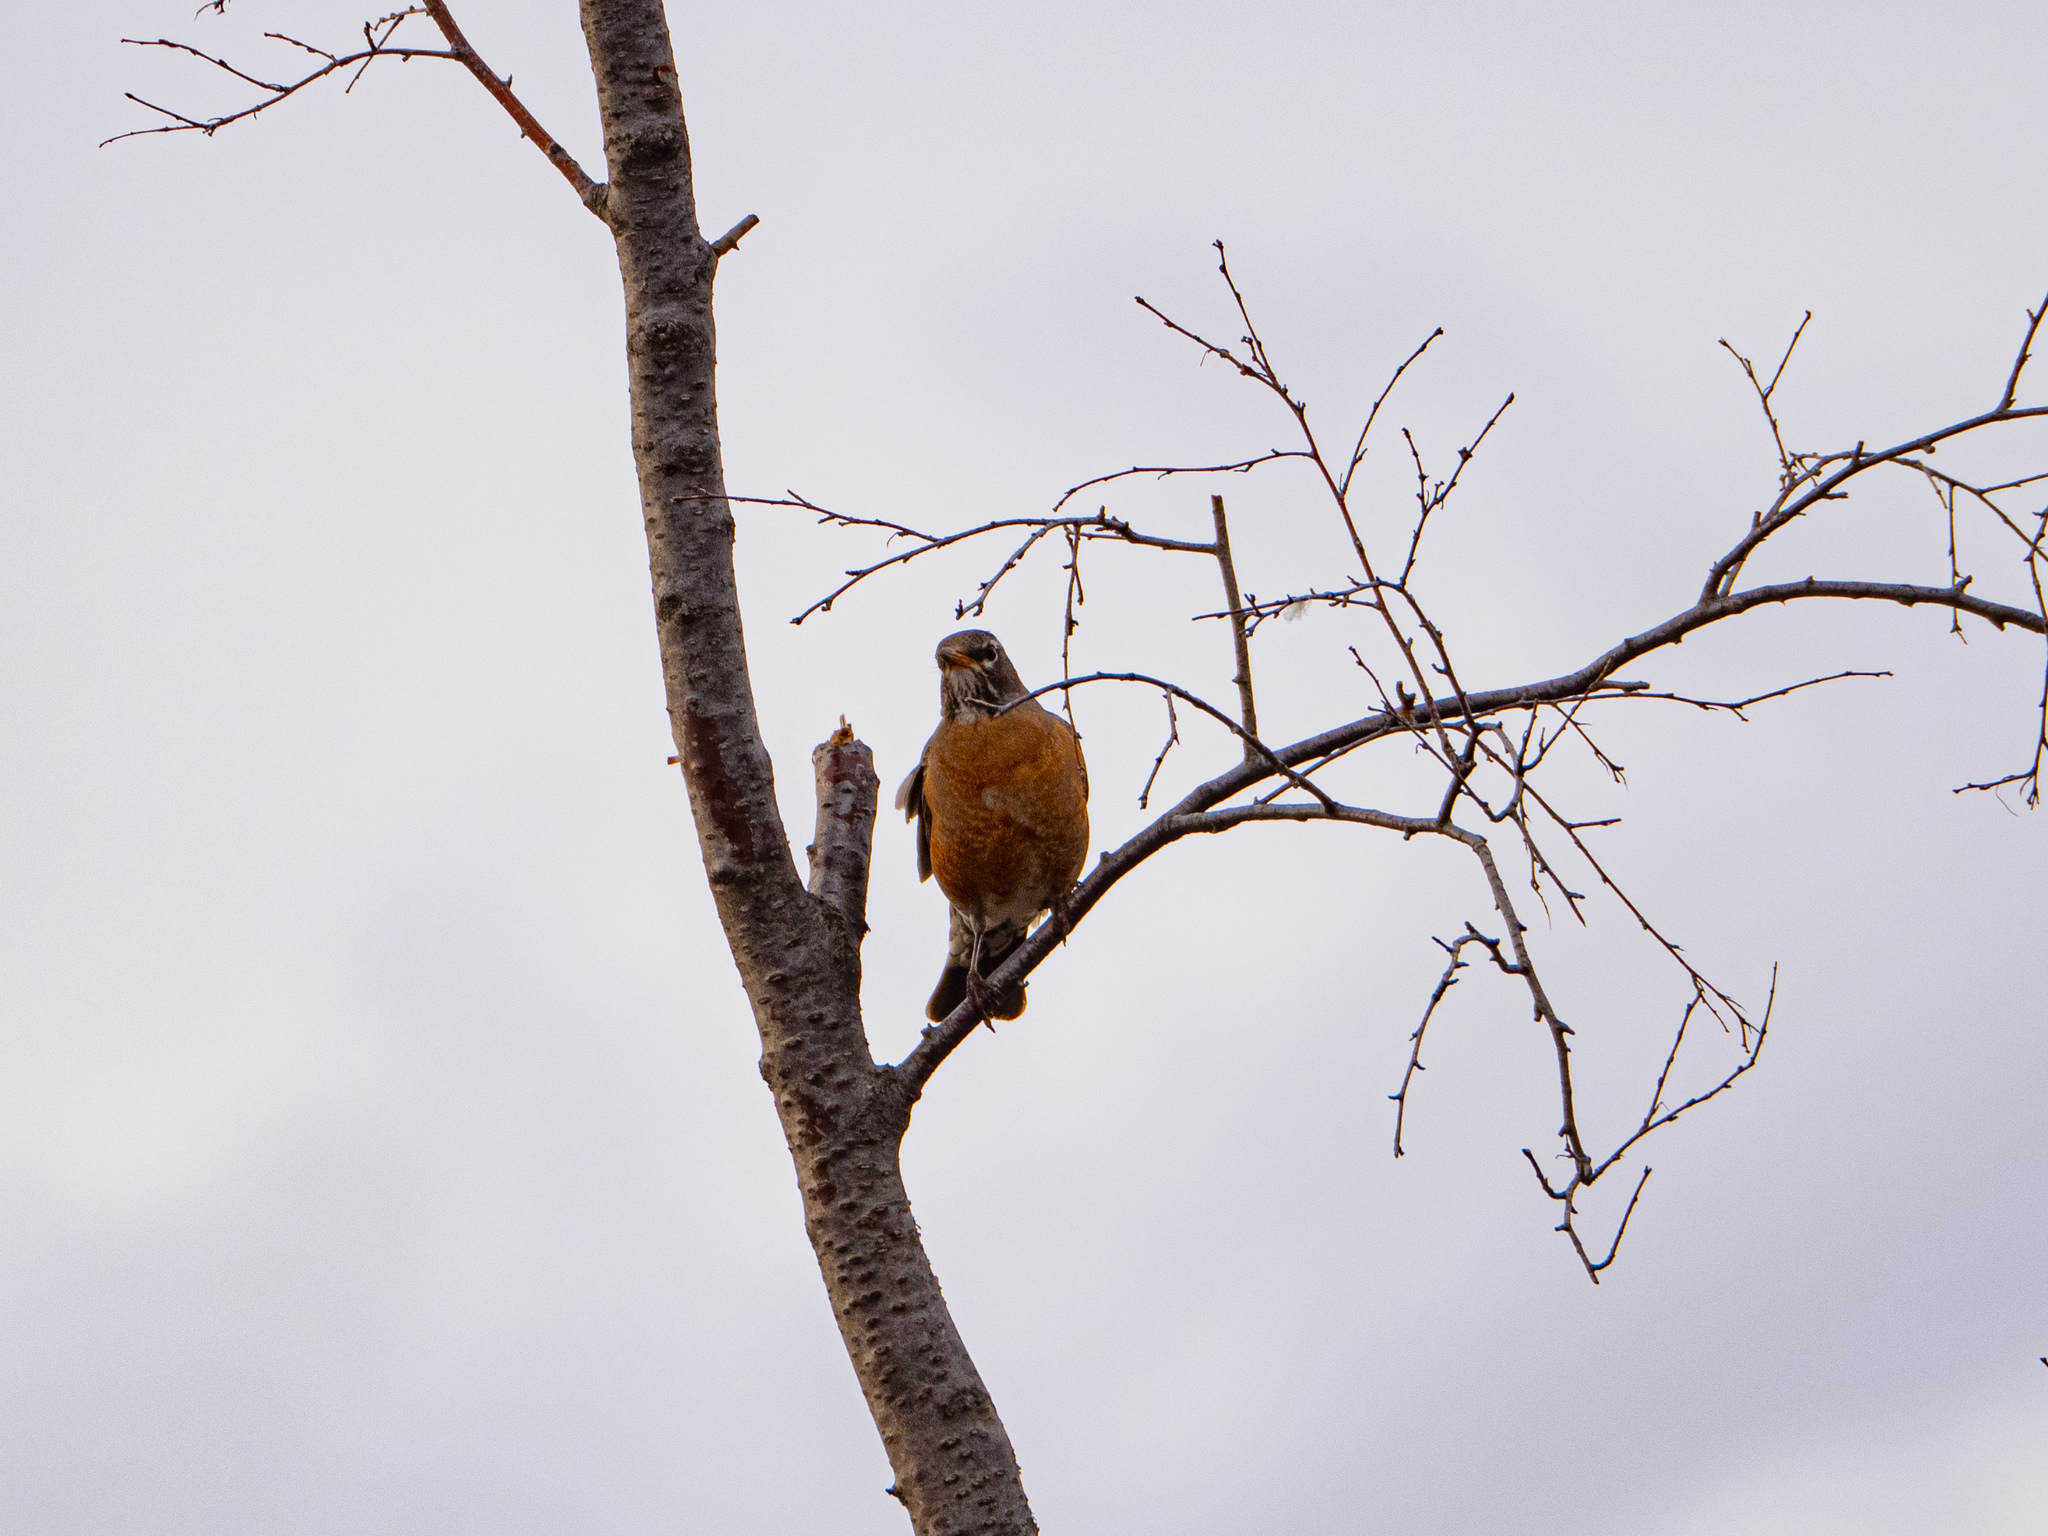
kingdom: Animalia
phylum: Chordata
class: Aves
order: Passeriformes
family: Turdidae
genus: Turdus
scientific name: Turdus migratorius
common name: American robin
